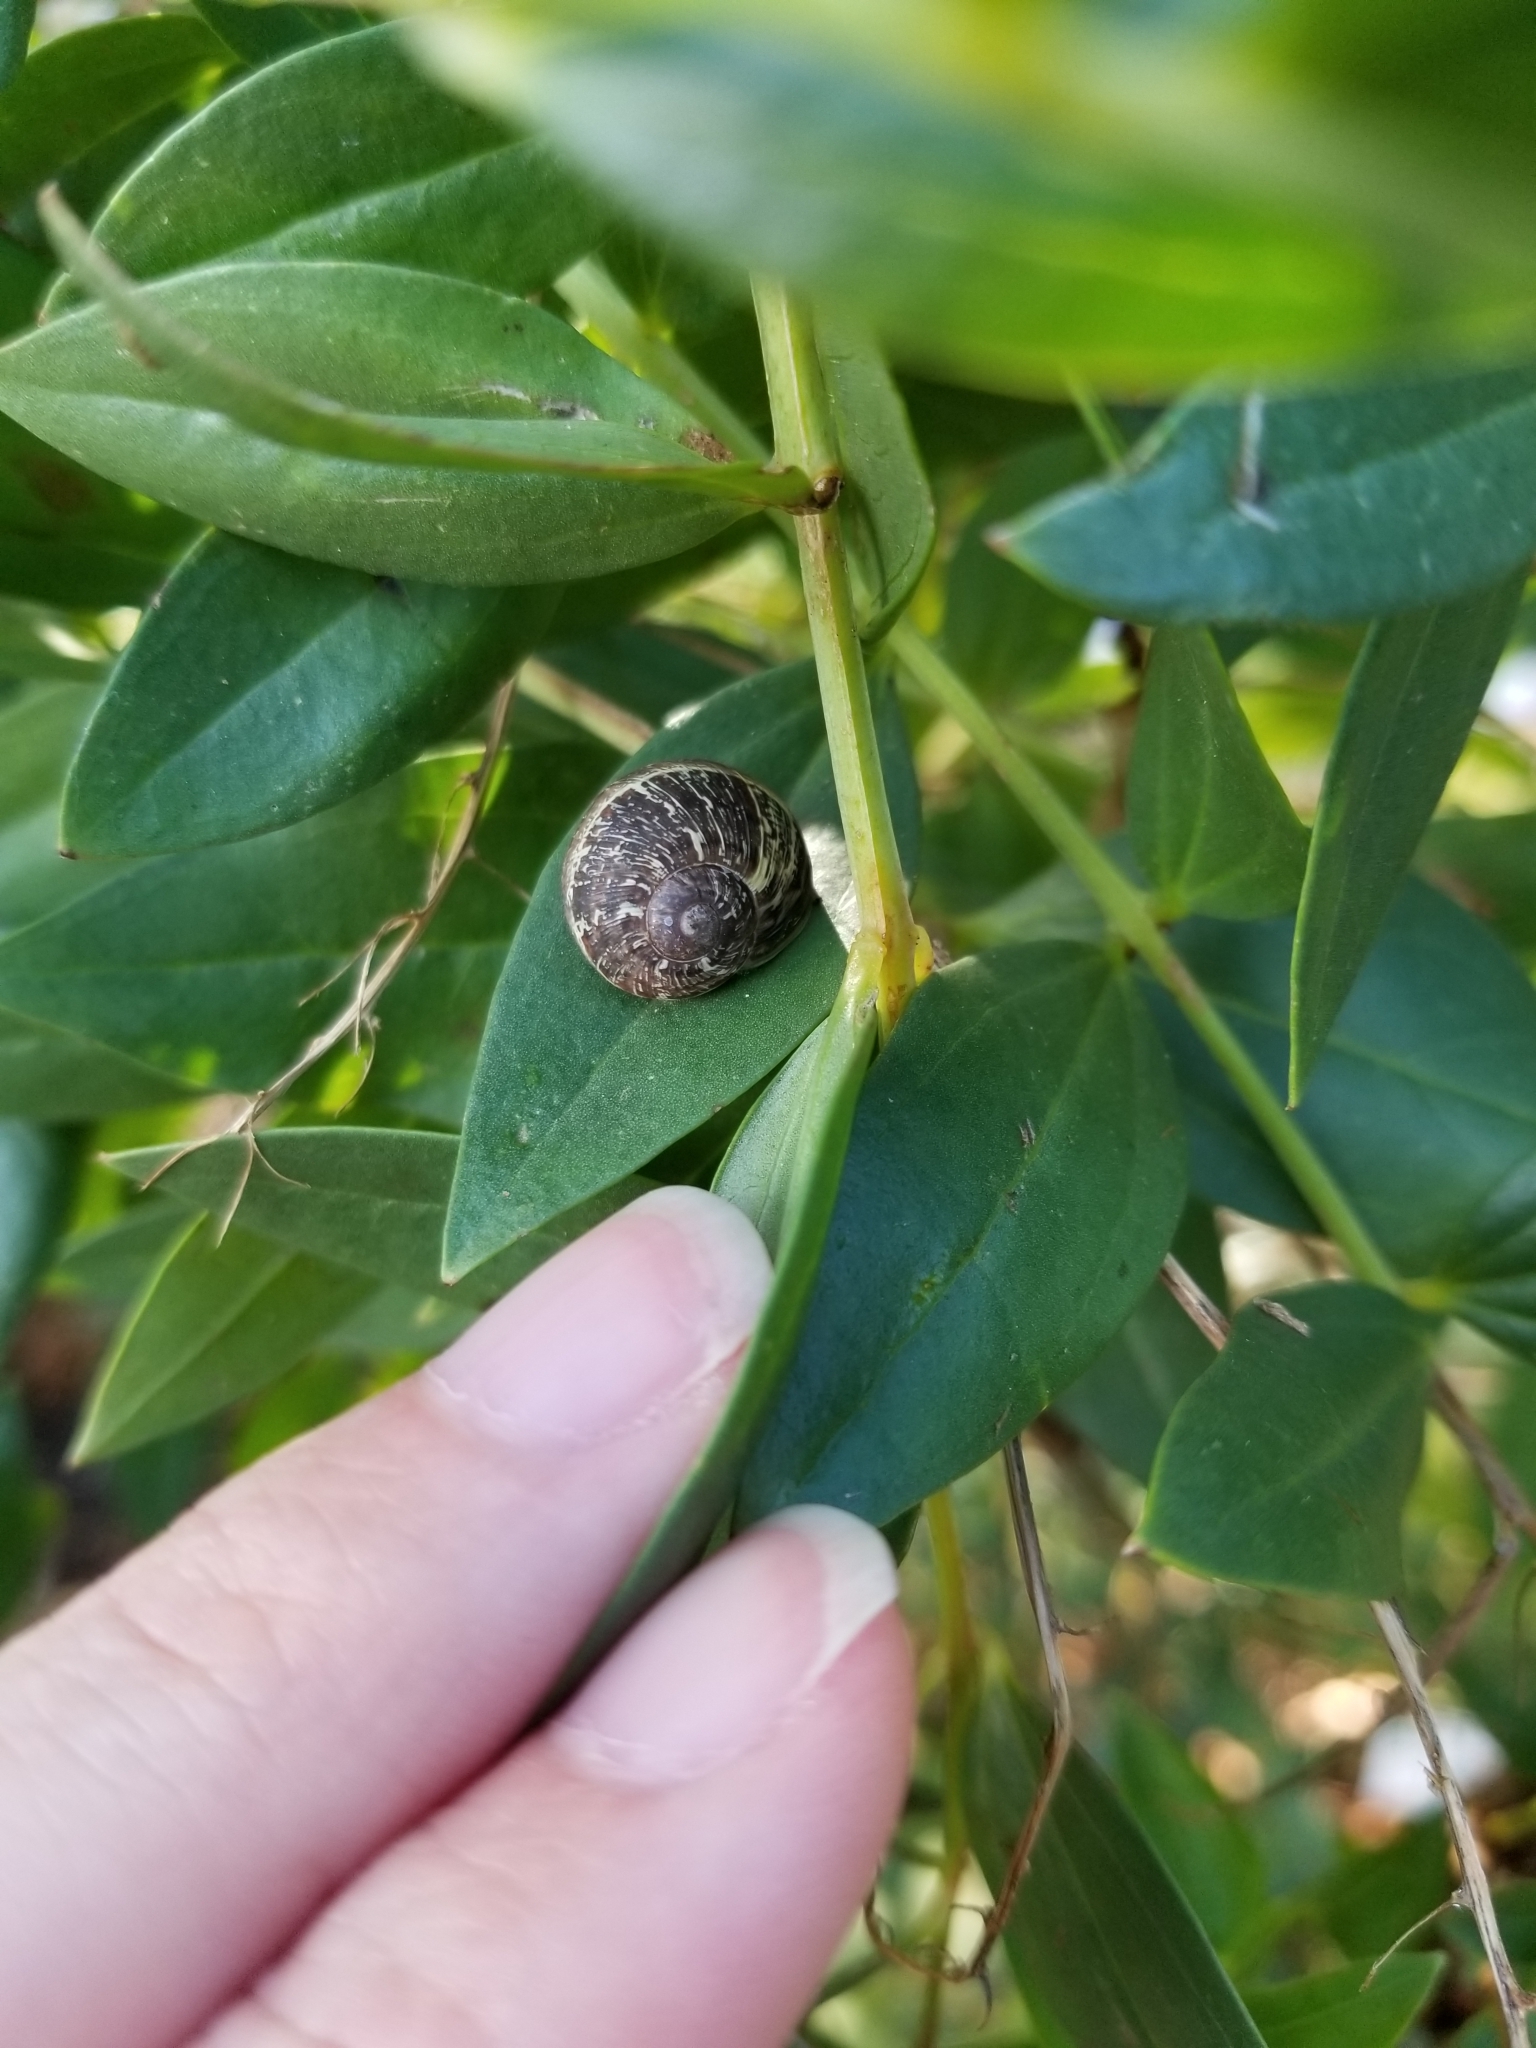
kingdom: Animalia
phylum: Mollusca
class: Gastropoda
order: Stylommatophora
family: Helicidae
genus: Cornu
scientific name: Cornu aspersum
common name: Brown garden snail
